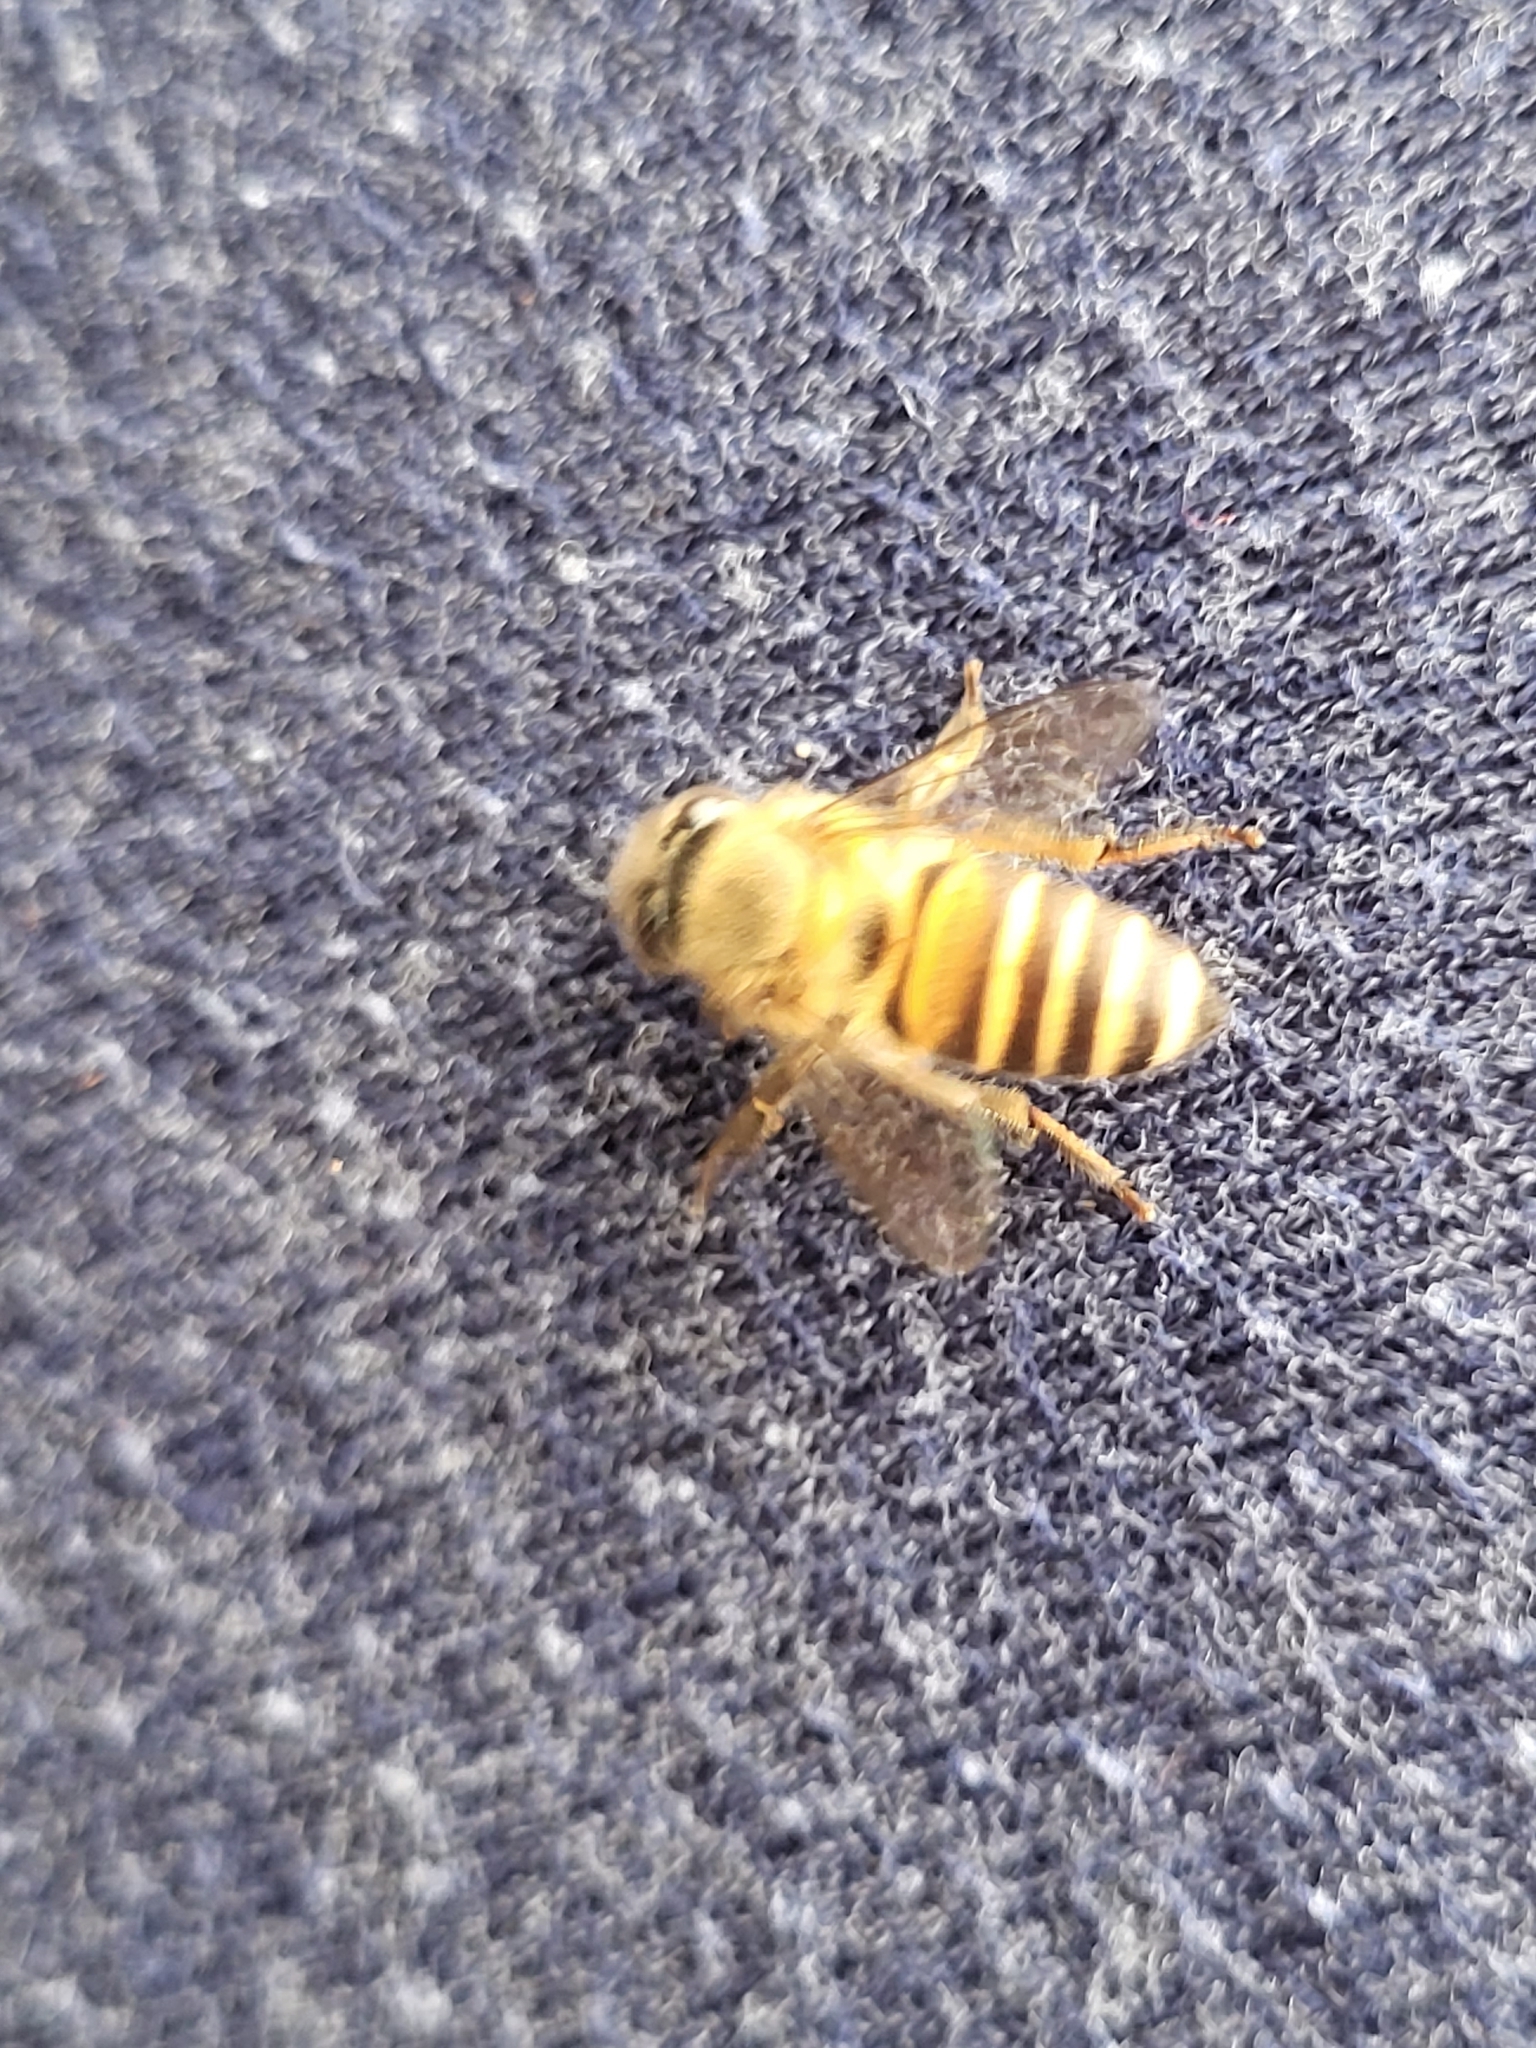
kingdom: Animalia
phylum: Arthropoda
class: Insecta
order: Hymenoptera
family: Apidae
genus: Apis
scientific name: Apis cerana
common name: Honey bee
